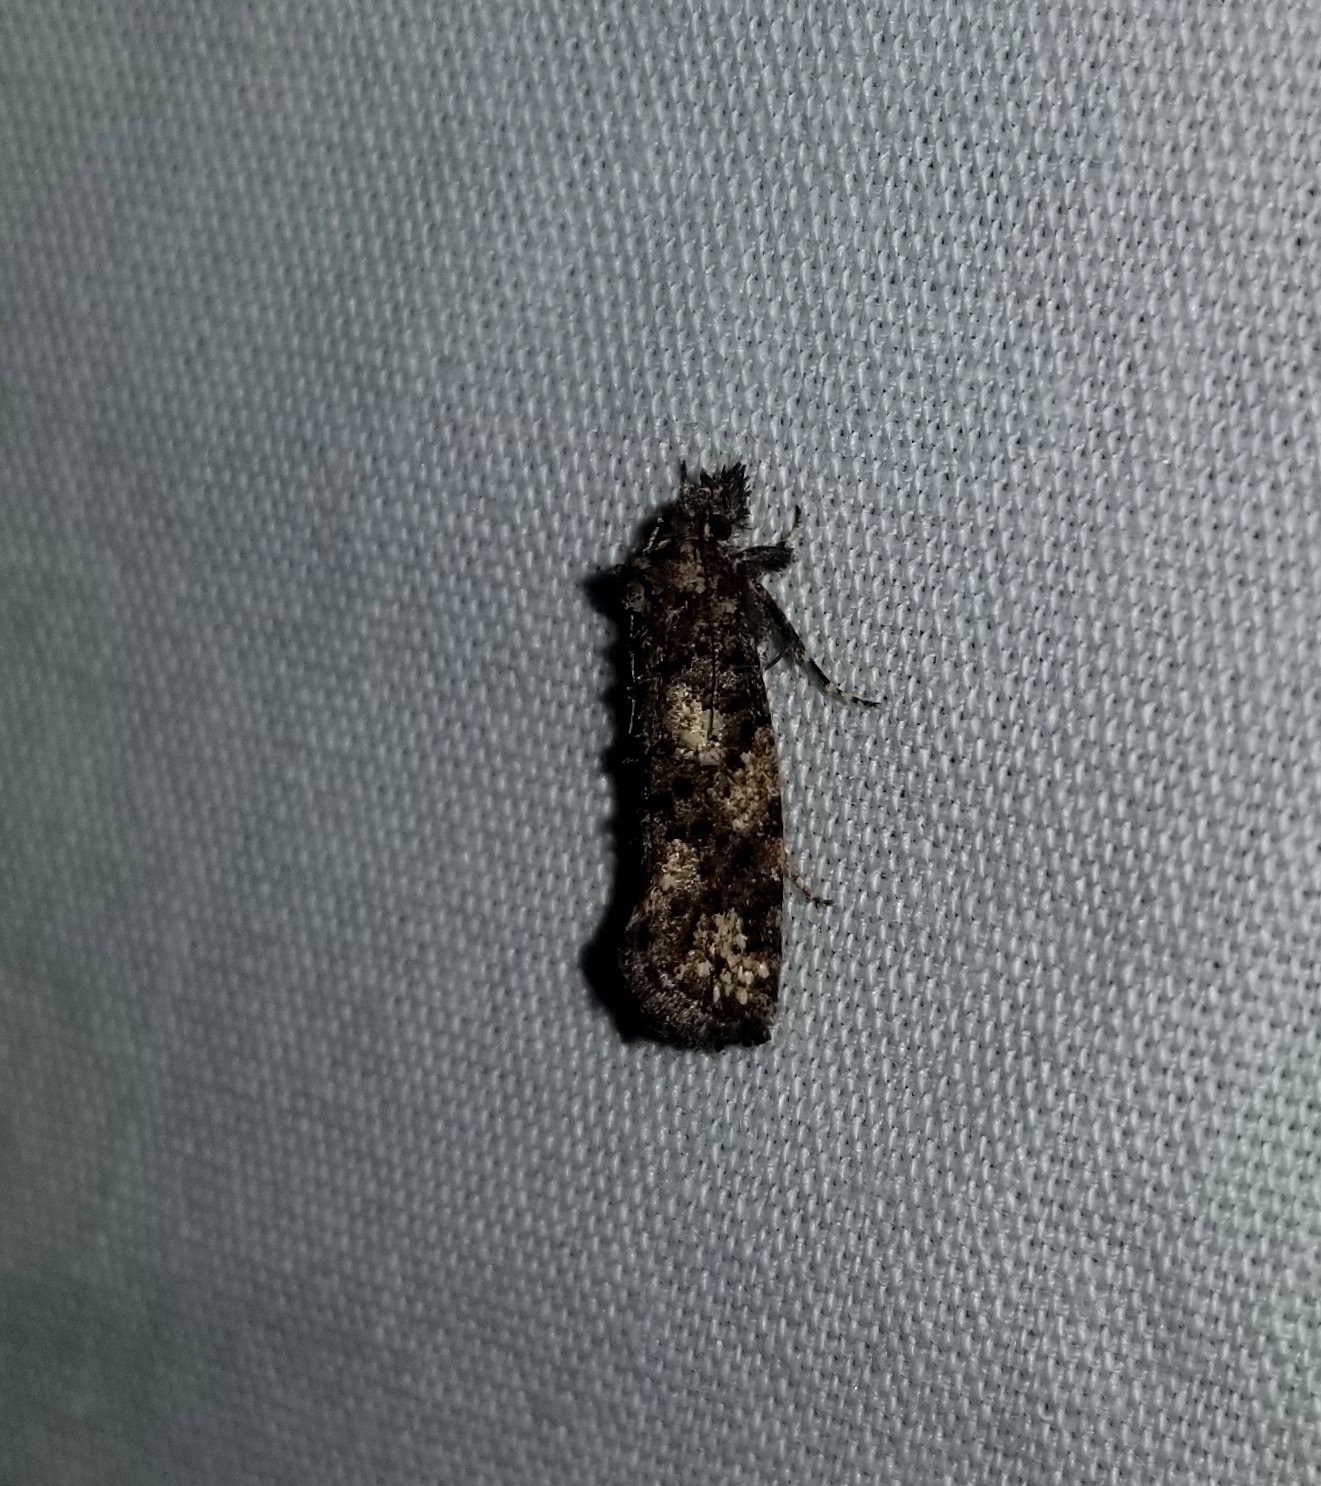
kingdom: Animalia
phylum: Arthropoda
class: Insecta
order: Lepidoptera
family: Tineidae
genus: Acrolophus
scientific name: Acrolophus cressoni
